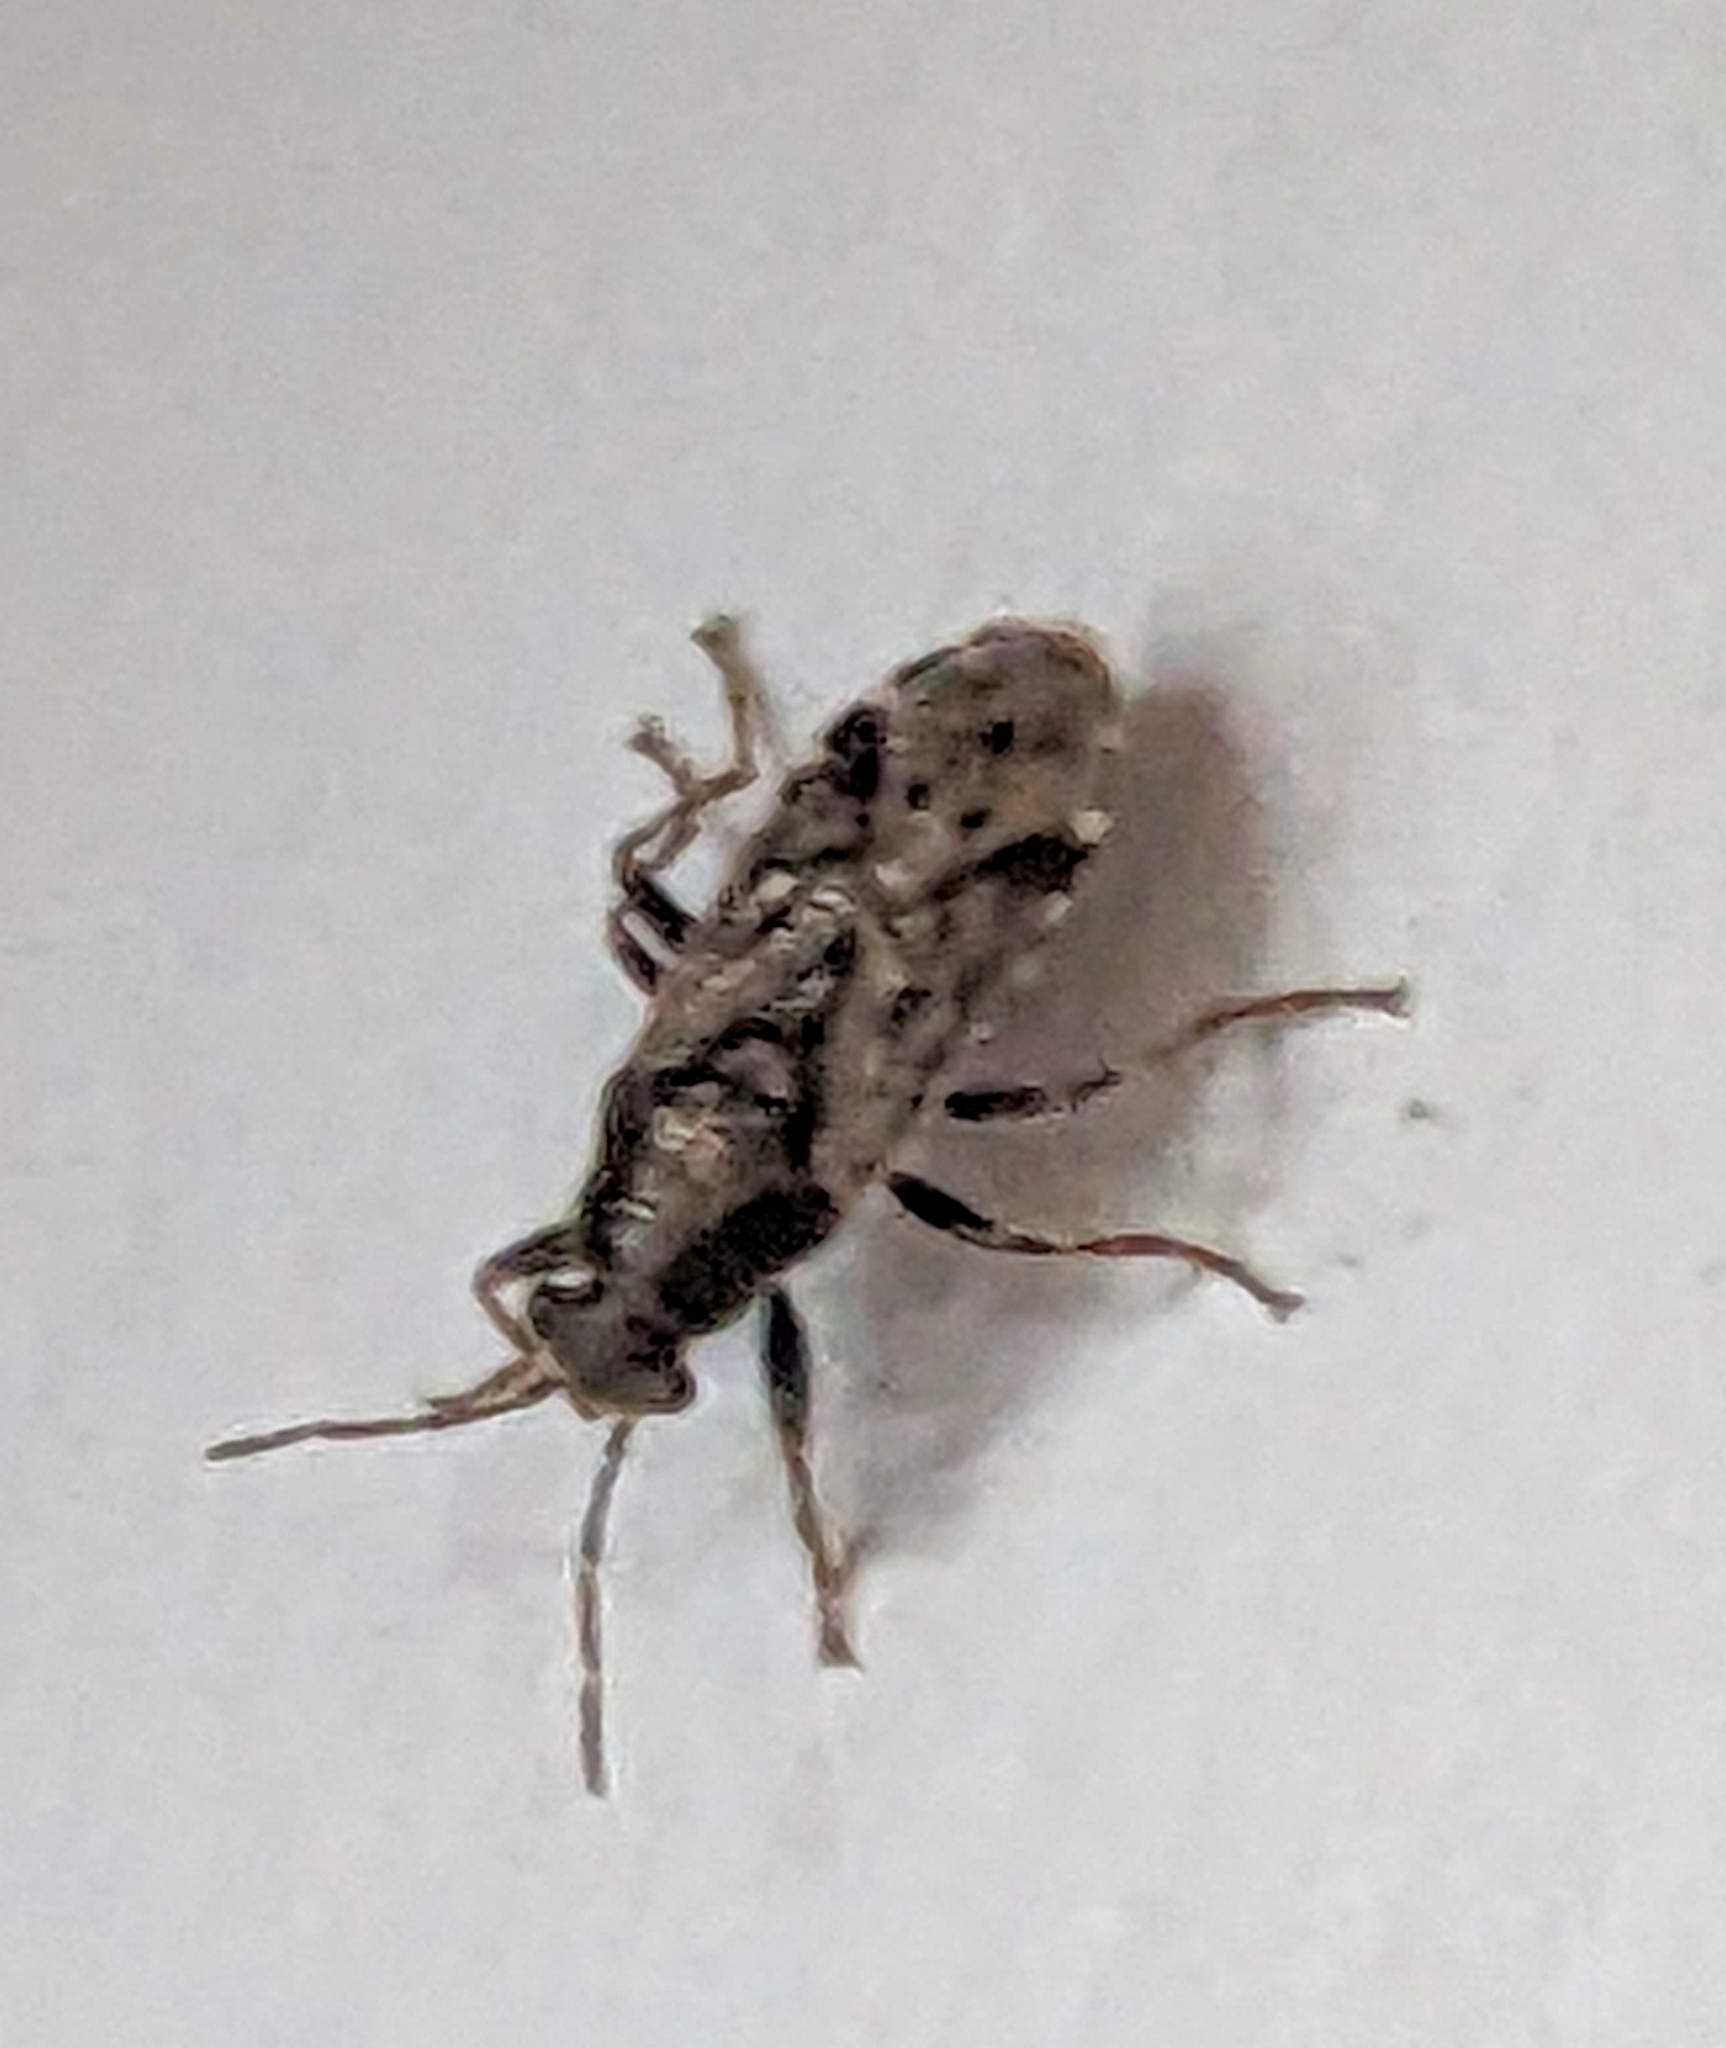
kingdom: Animalia
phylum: Arthropoda
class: Insecta
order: Hemiptera
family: Heterogastridae
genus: Heterogaster
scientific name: Heterogaster urticae
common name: Seed bug
